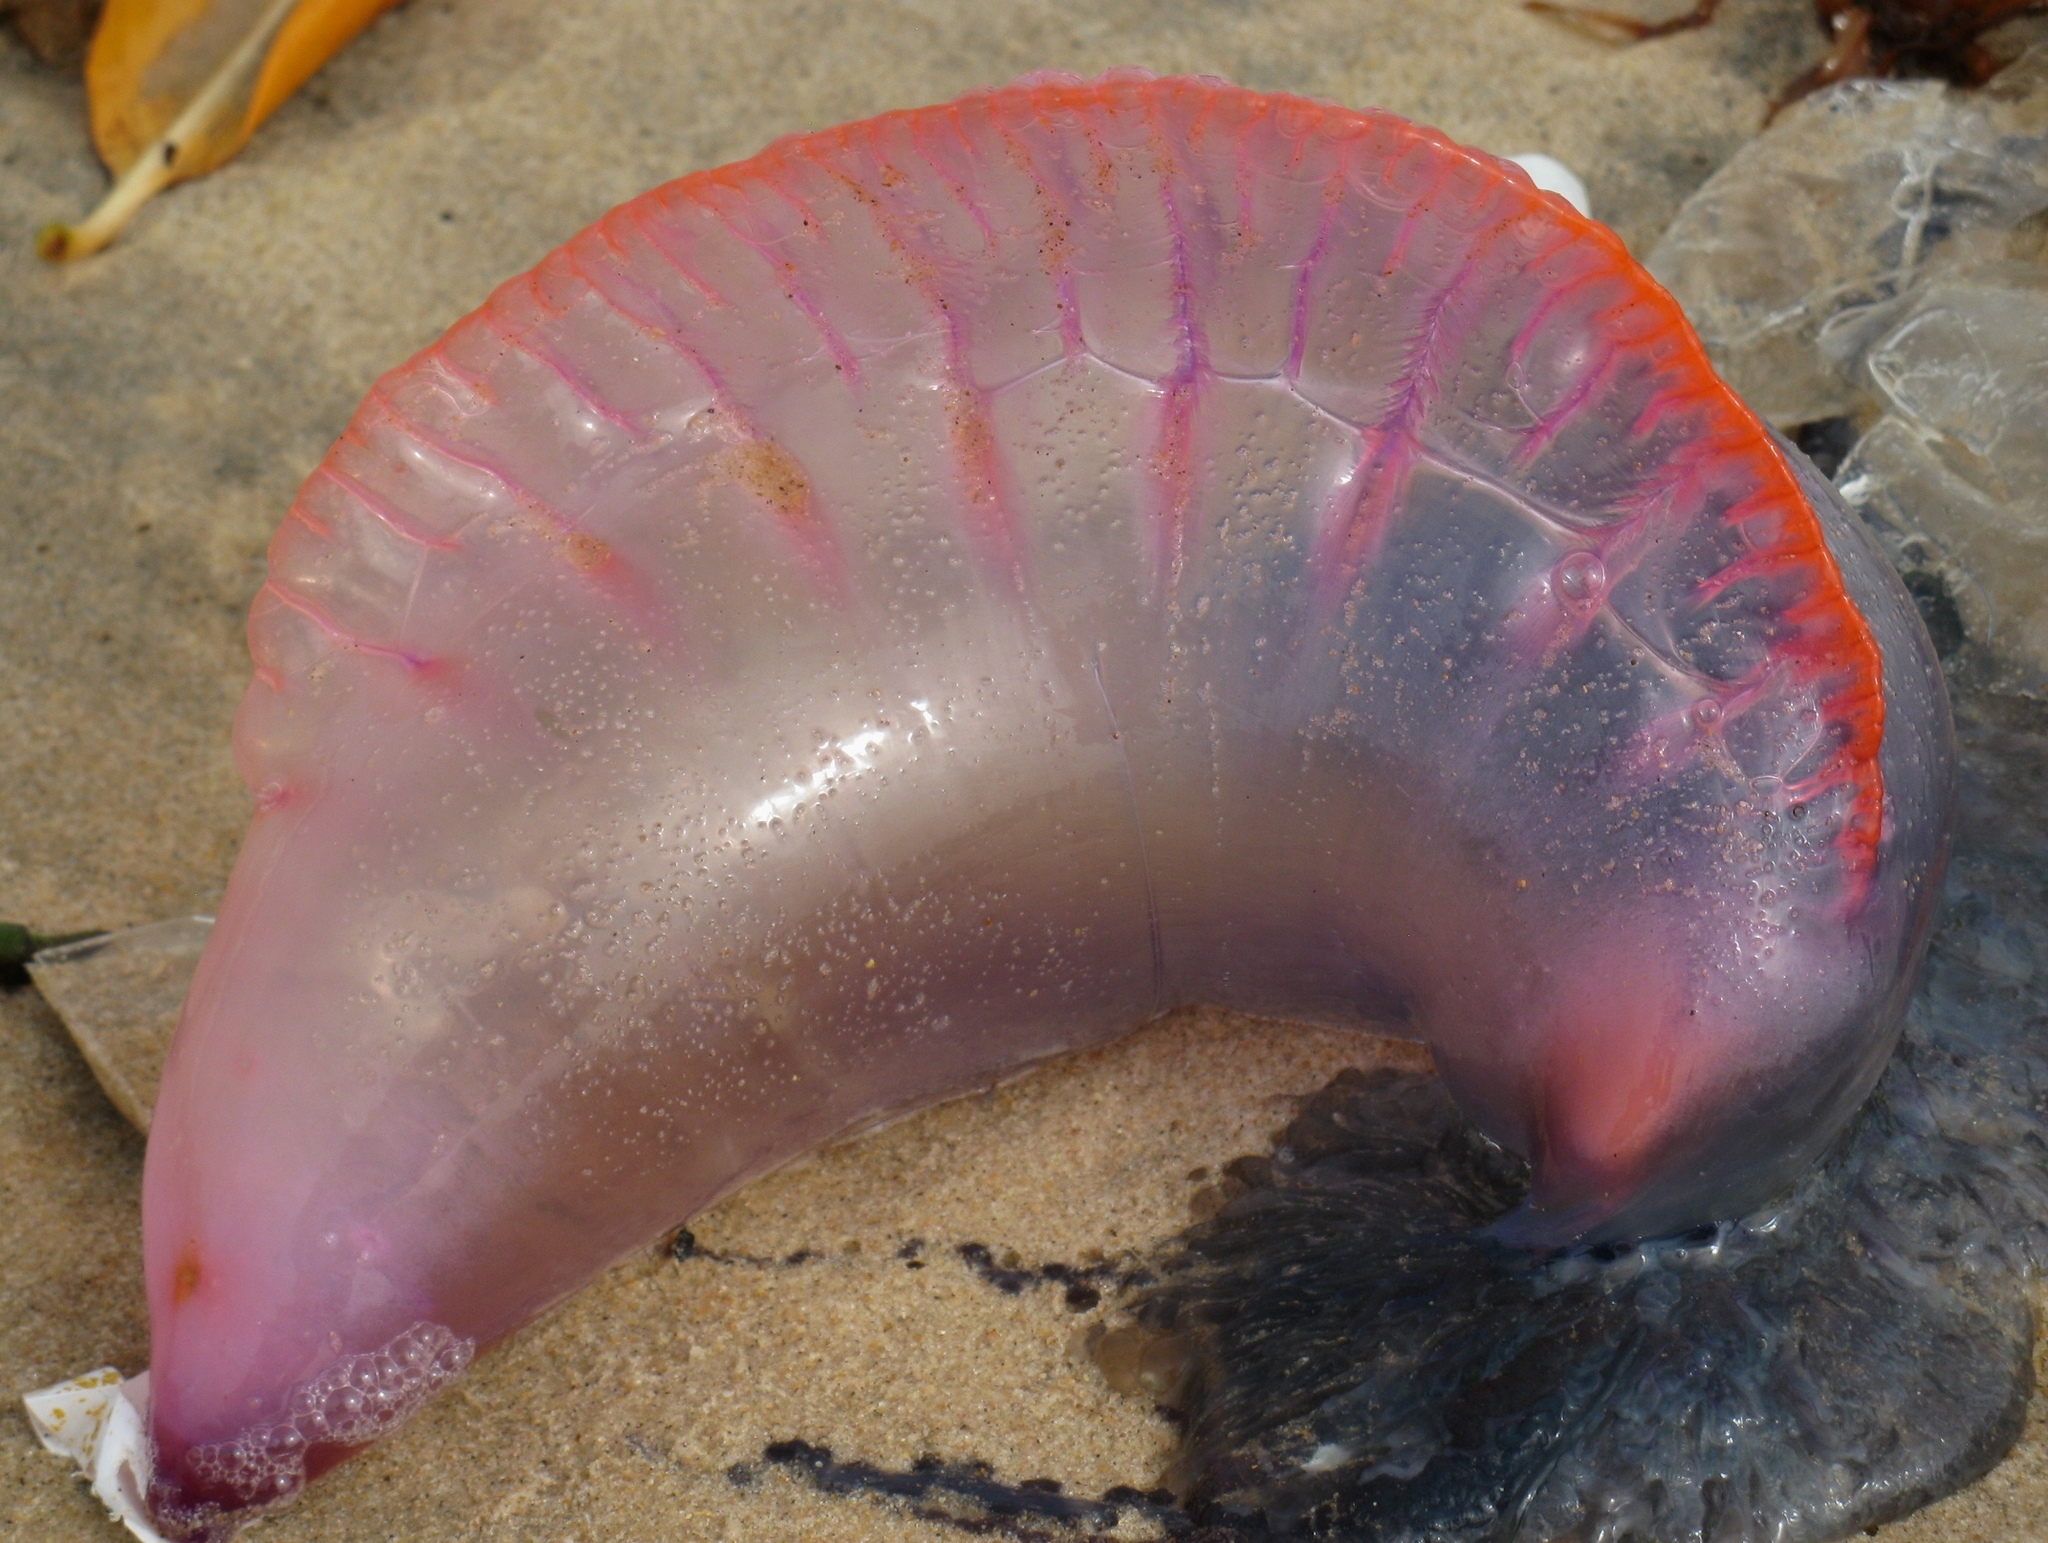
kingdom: Animalia
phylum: Cnidaria
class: Hydrozoa
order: Siphonophorae
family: Physaliidae
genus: Physalia
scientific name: Physalia physalis
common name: Portuguese man-of-war
